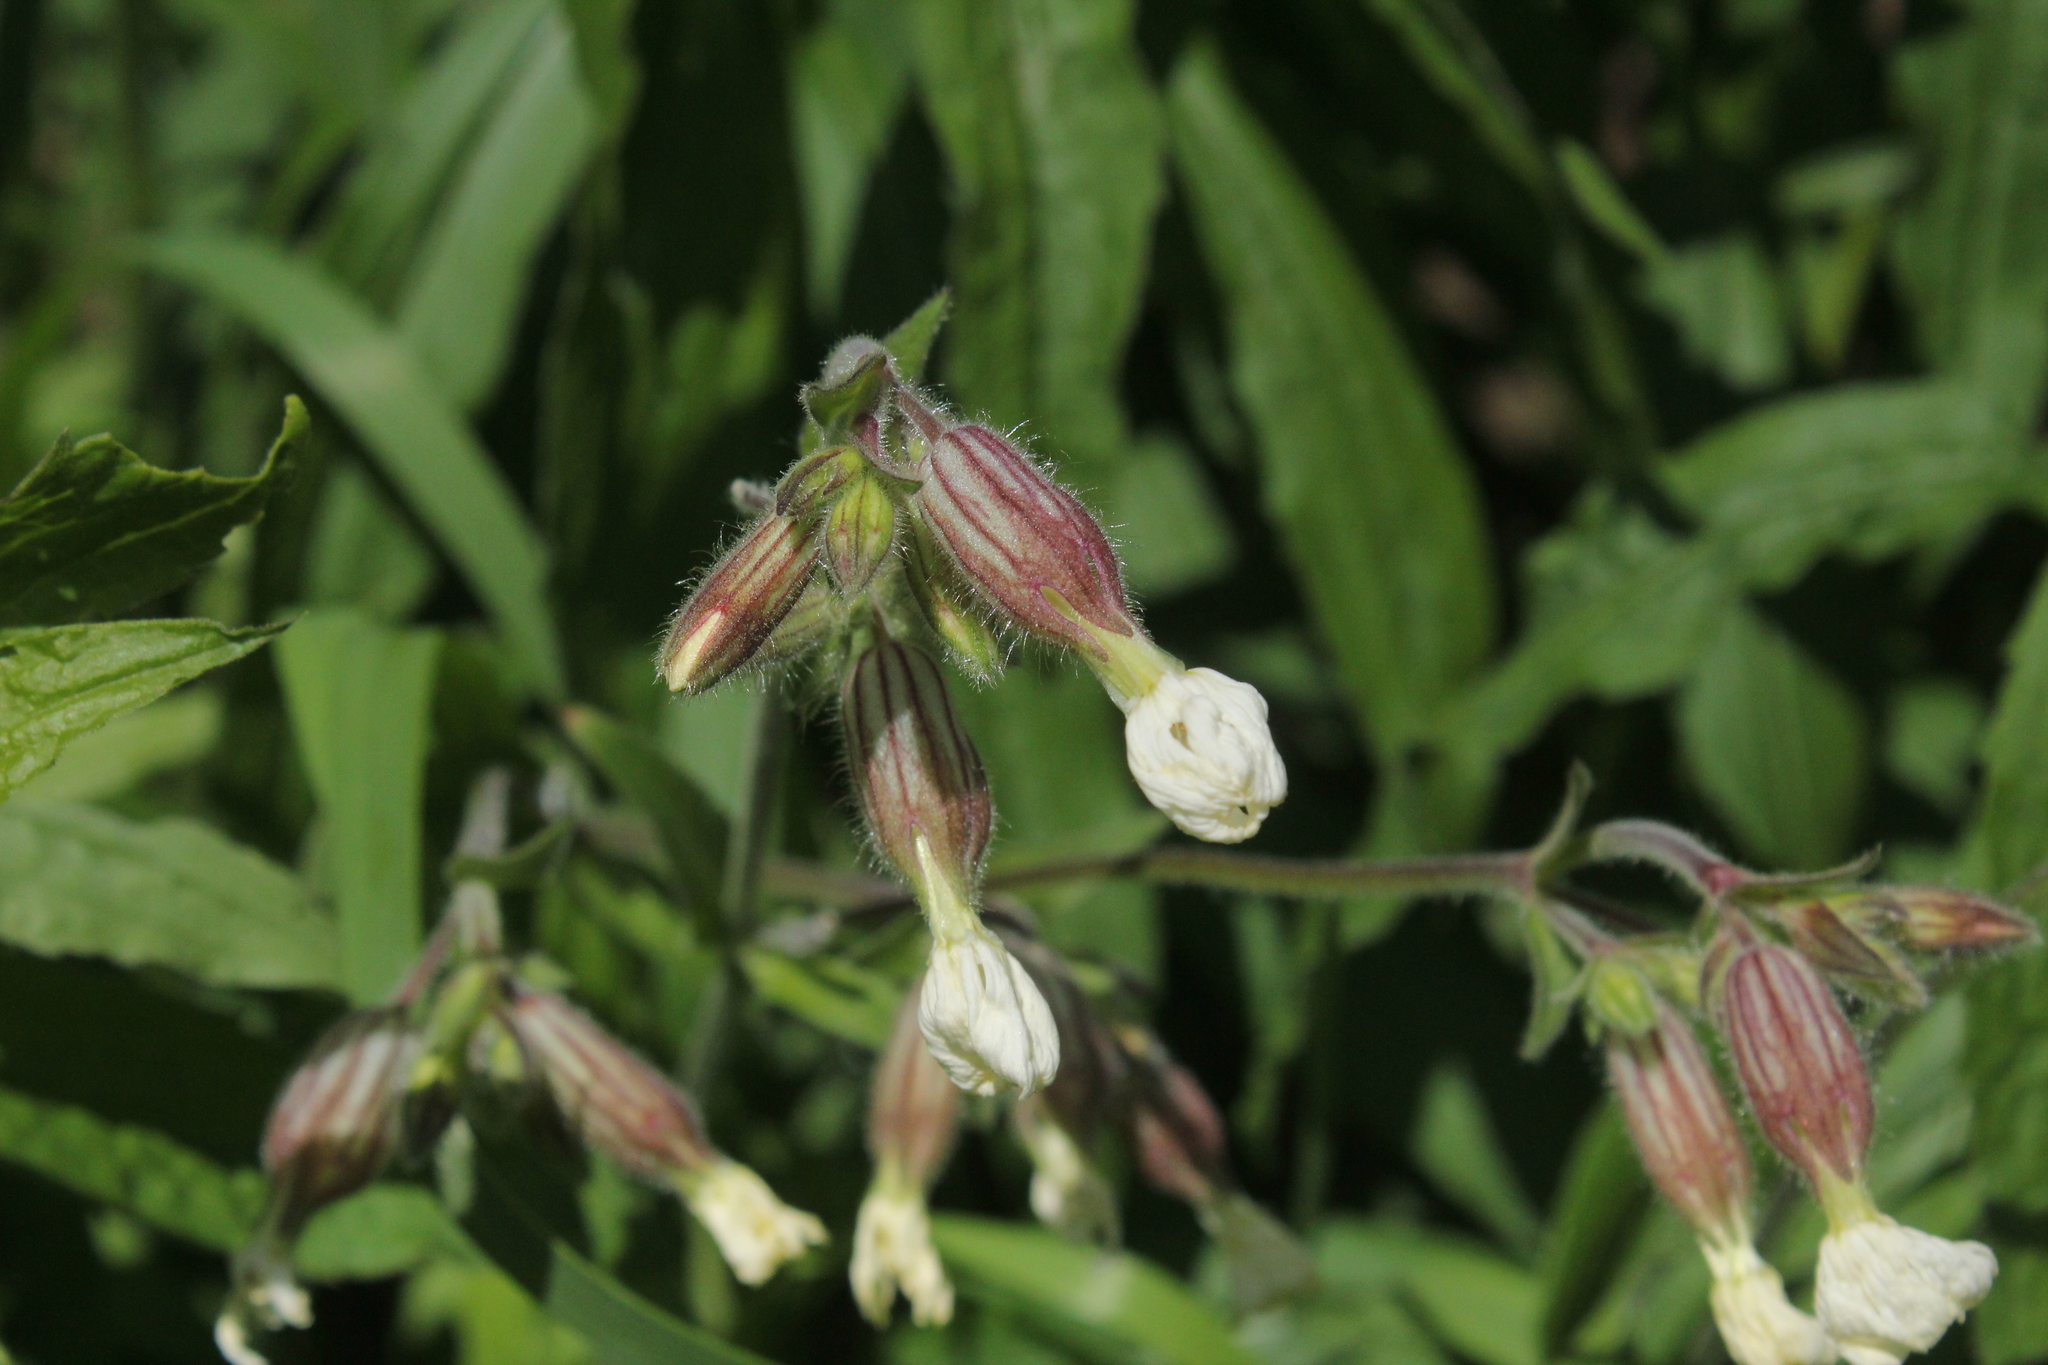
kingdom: Plantae
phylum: Tracheophyta
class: Magnoliopsida
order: Caryophyllales
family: Caryophyllaceae
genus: Silene
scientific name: Silene latifolia
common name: White campion
